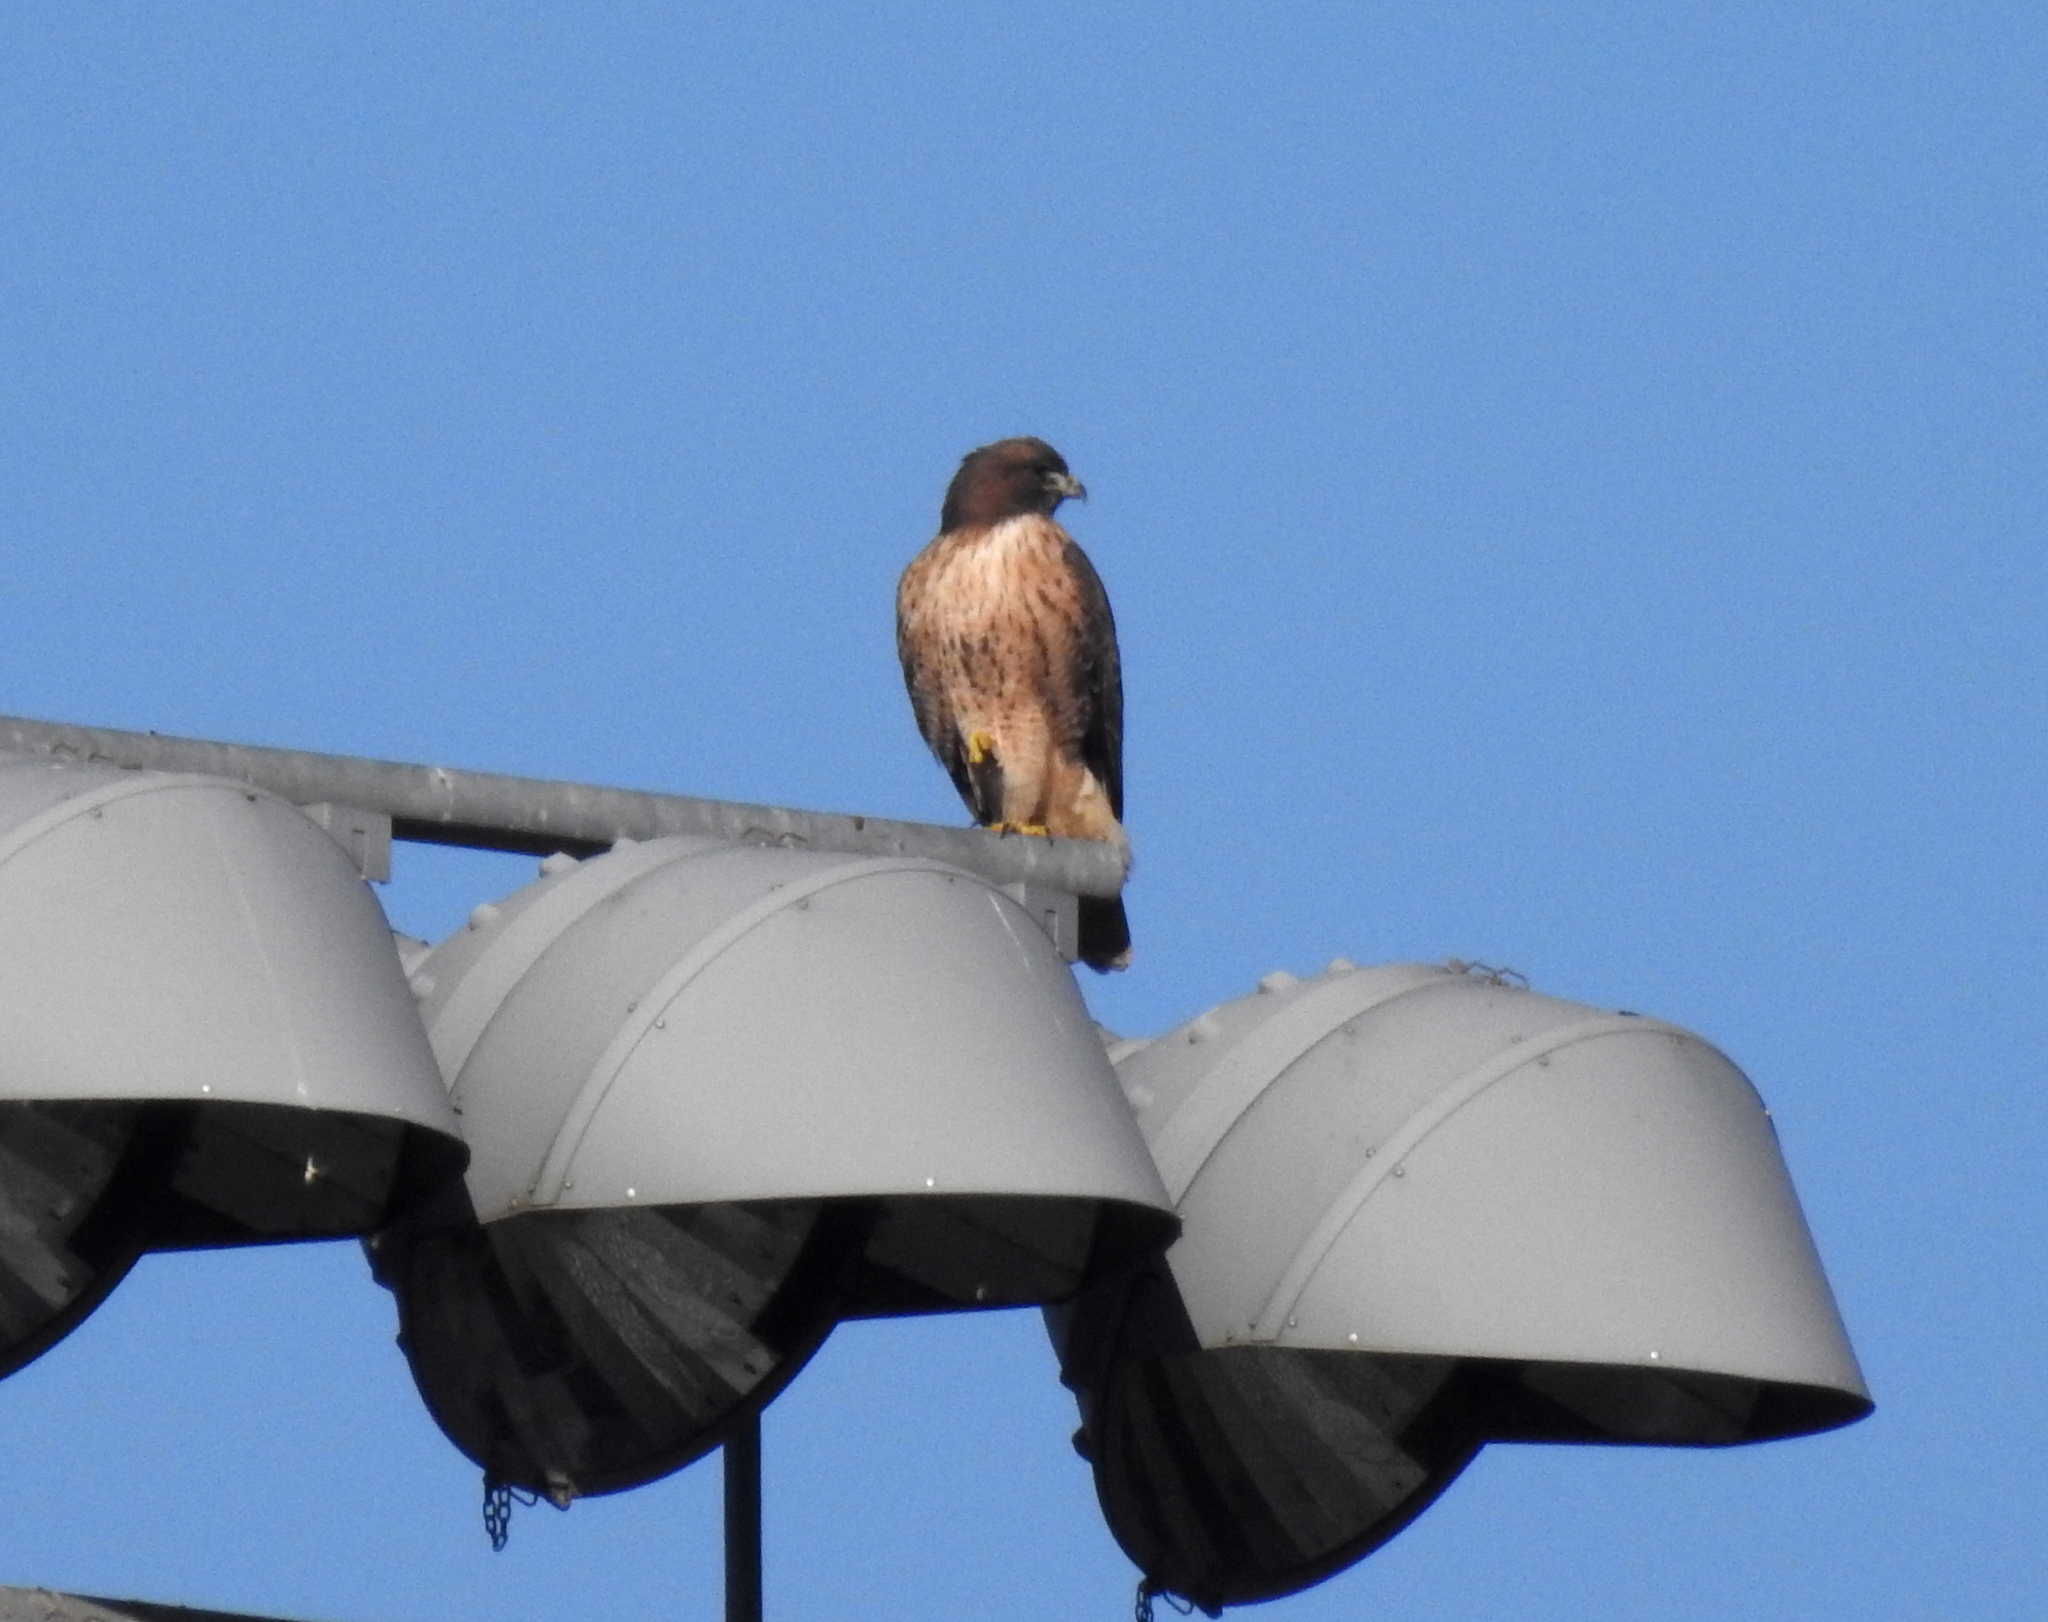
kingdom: Animalia
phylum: Chordata
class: Aves
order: Accipitriformes
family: Accipitridae
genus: Buteo
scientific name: Buteo jamaicensis
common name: Red-tailed hawk
